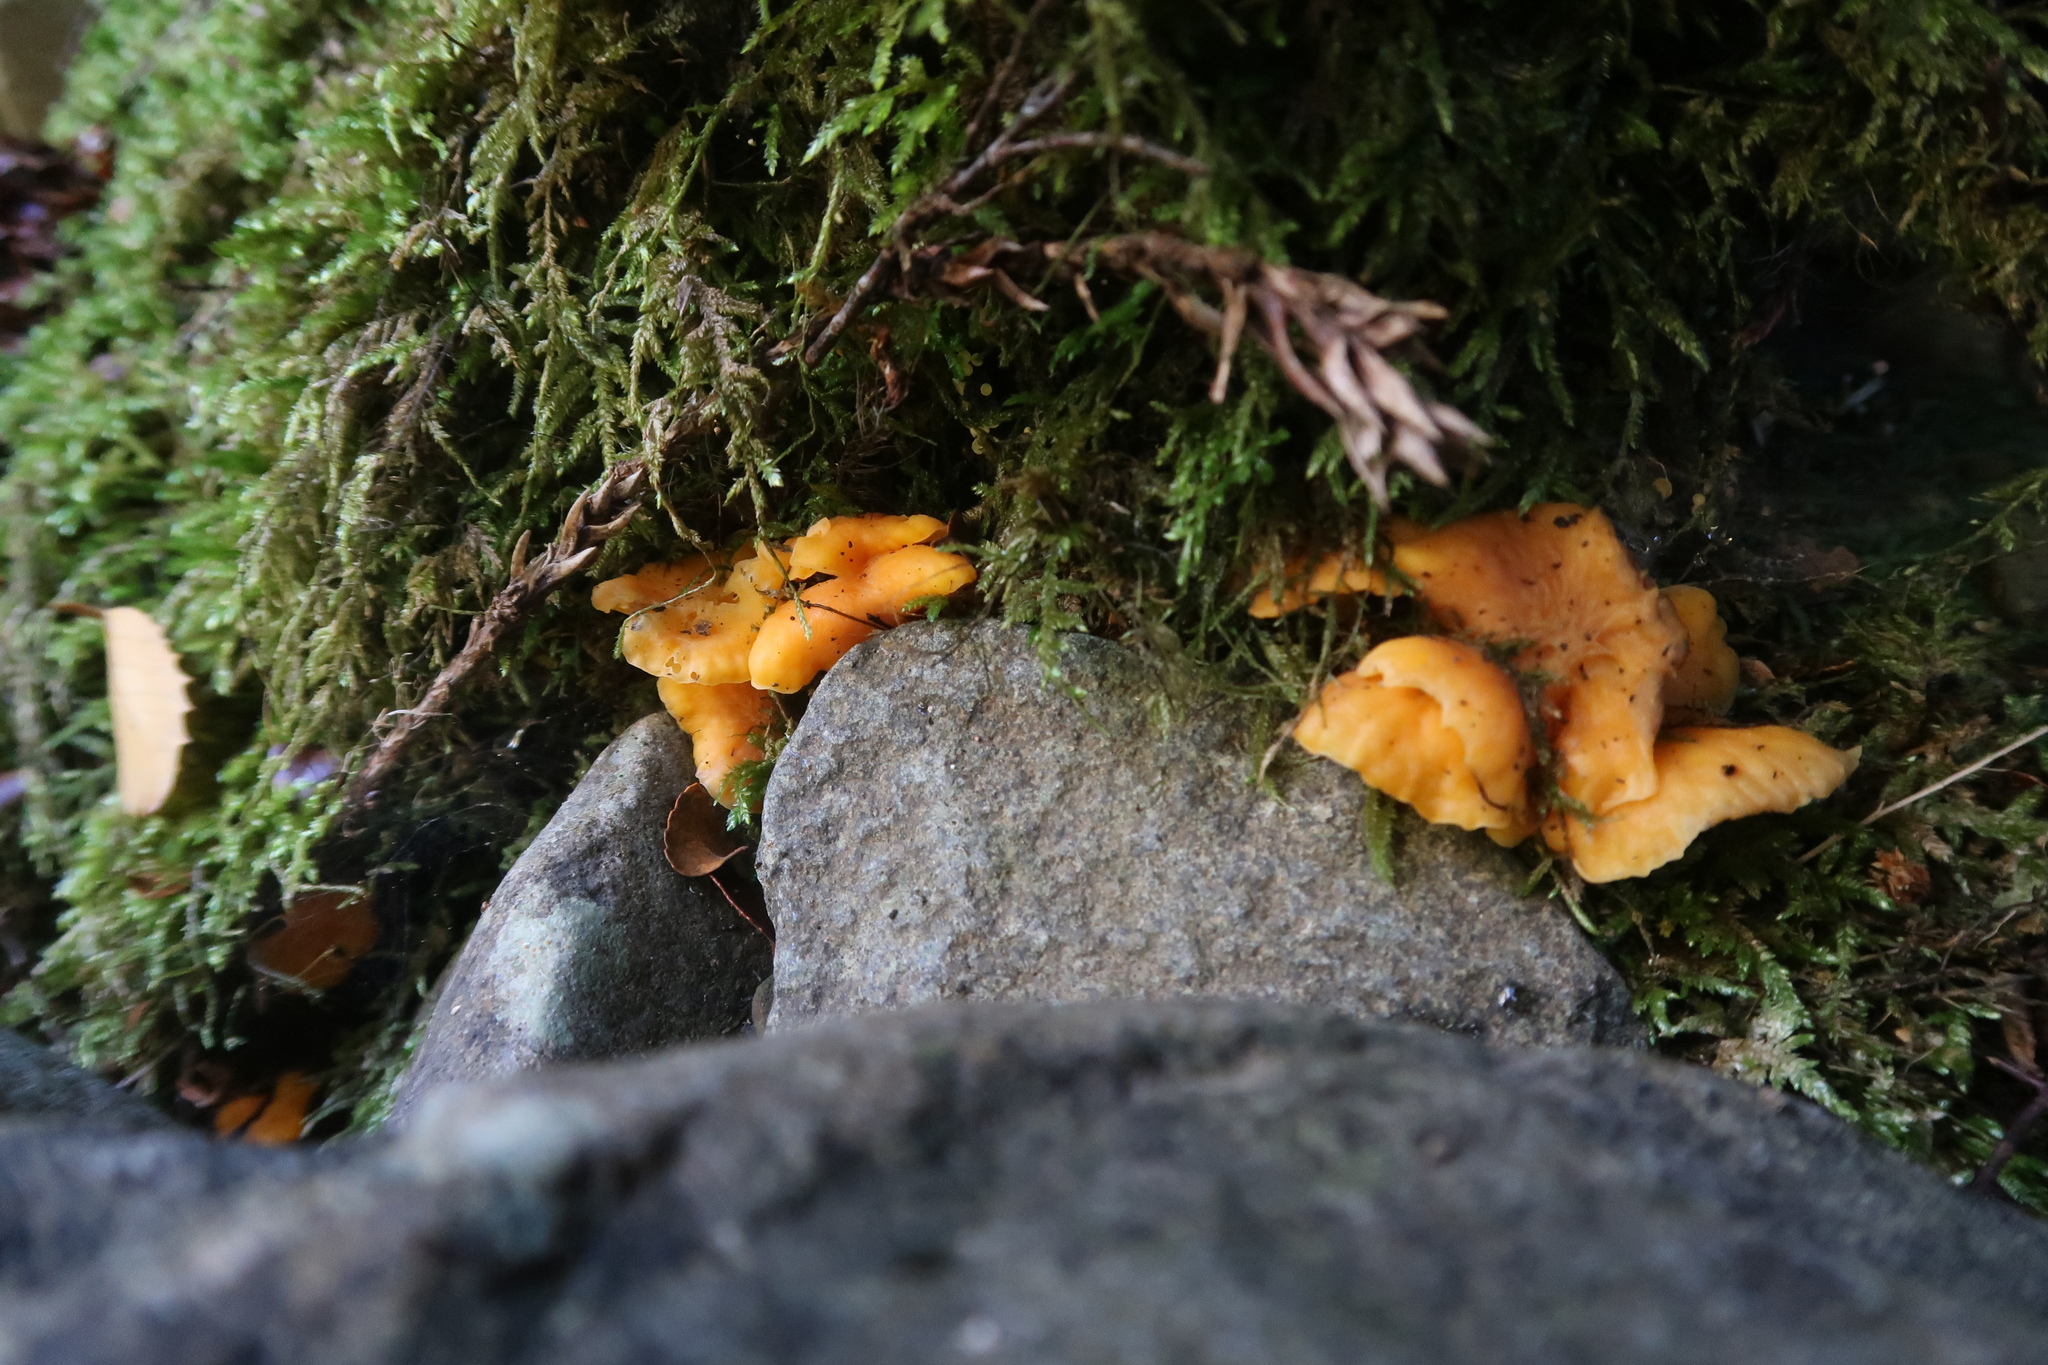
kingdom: Fungi
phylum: Basidiomycota
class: Agaricomycetes
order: Cantharellales
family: Hydnaceae
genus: Cantharellus
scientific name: Cantharellus
